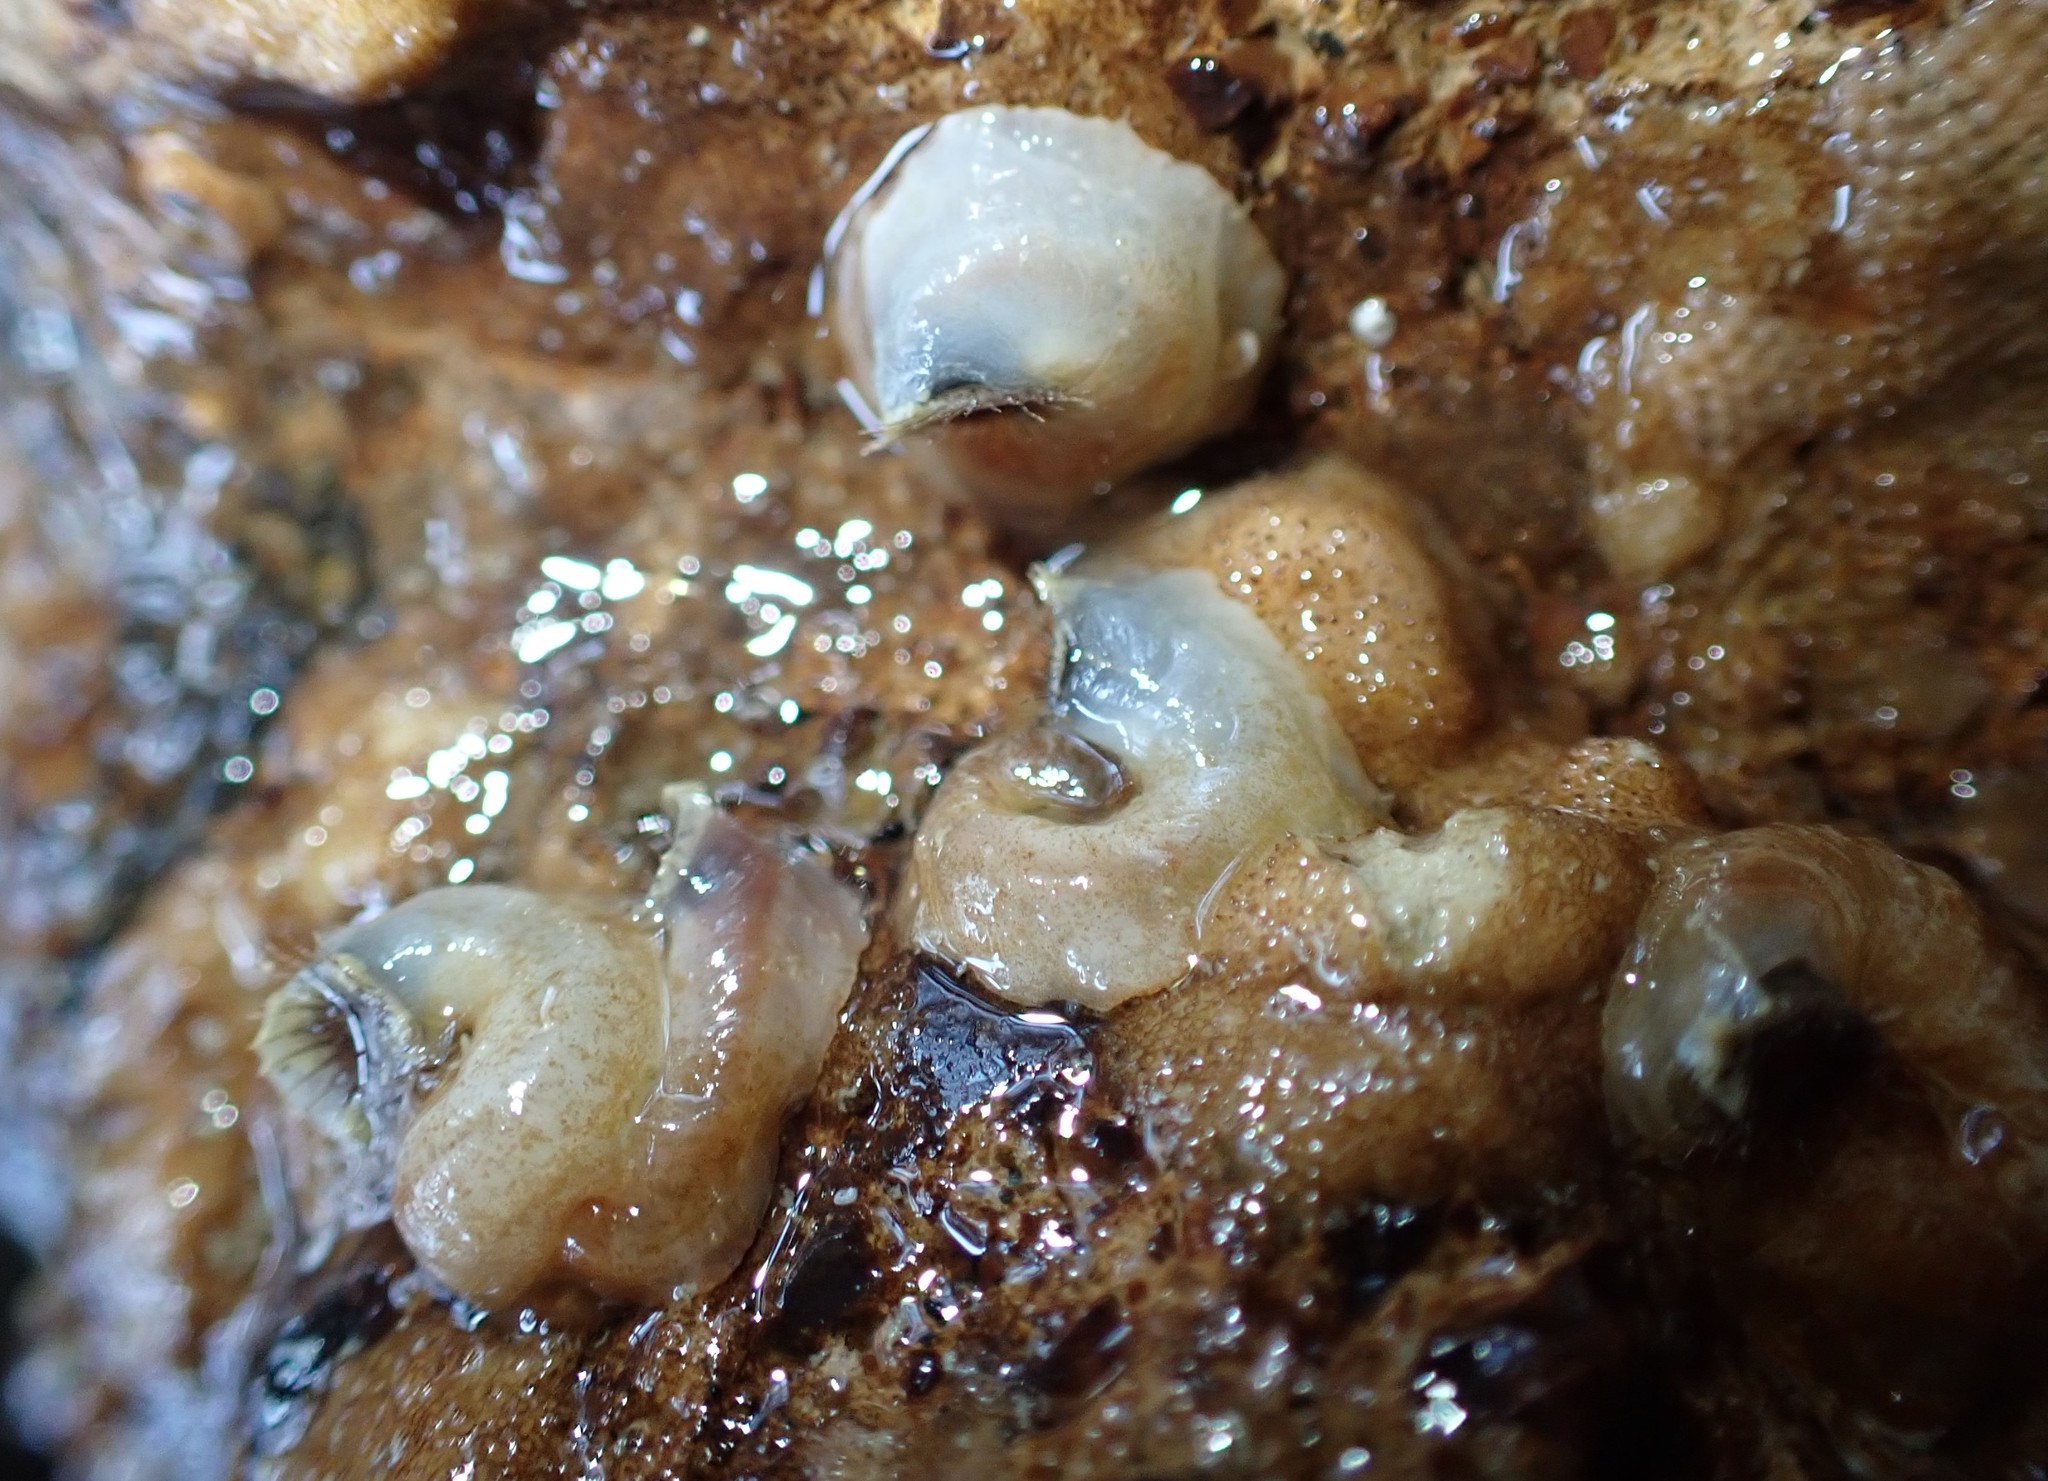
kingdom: Animalia
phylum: Mollusca
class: Gastropoda
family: Siliquariidae
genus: Stephopoma
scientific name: Stephopoma roseum
